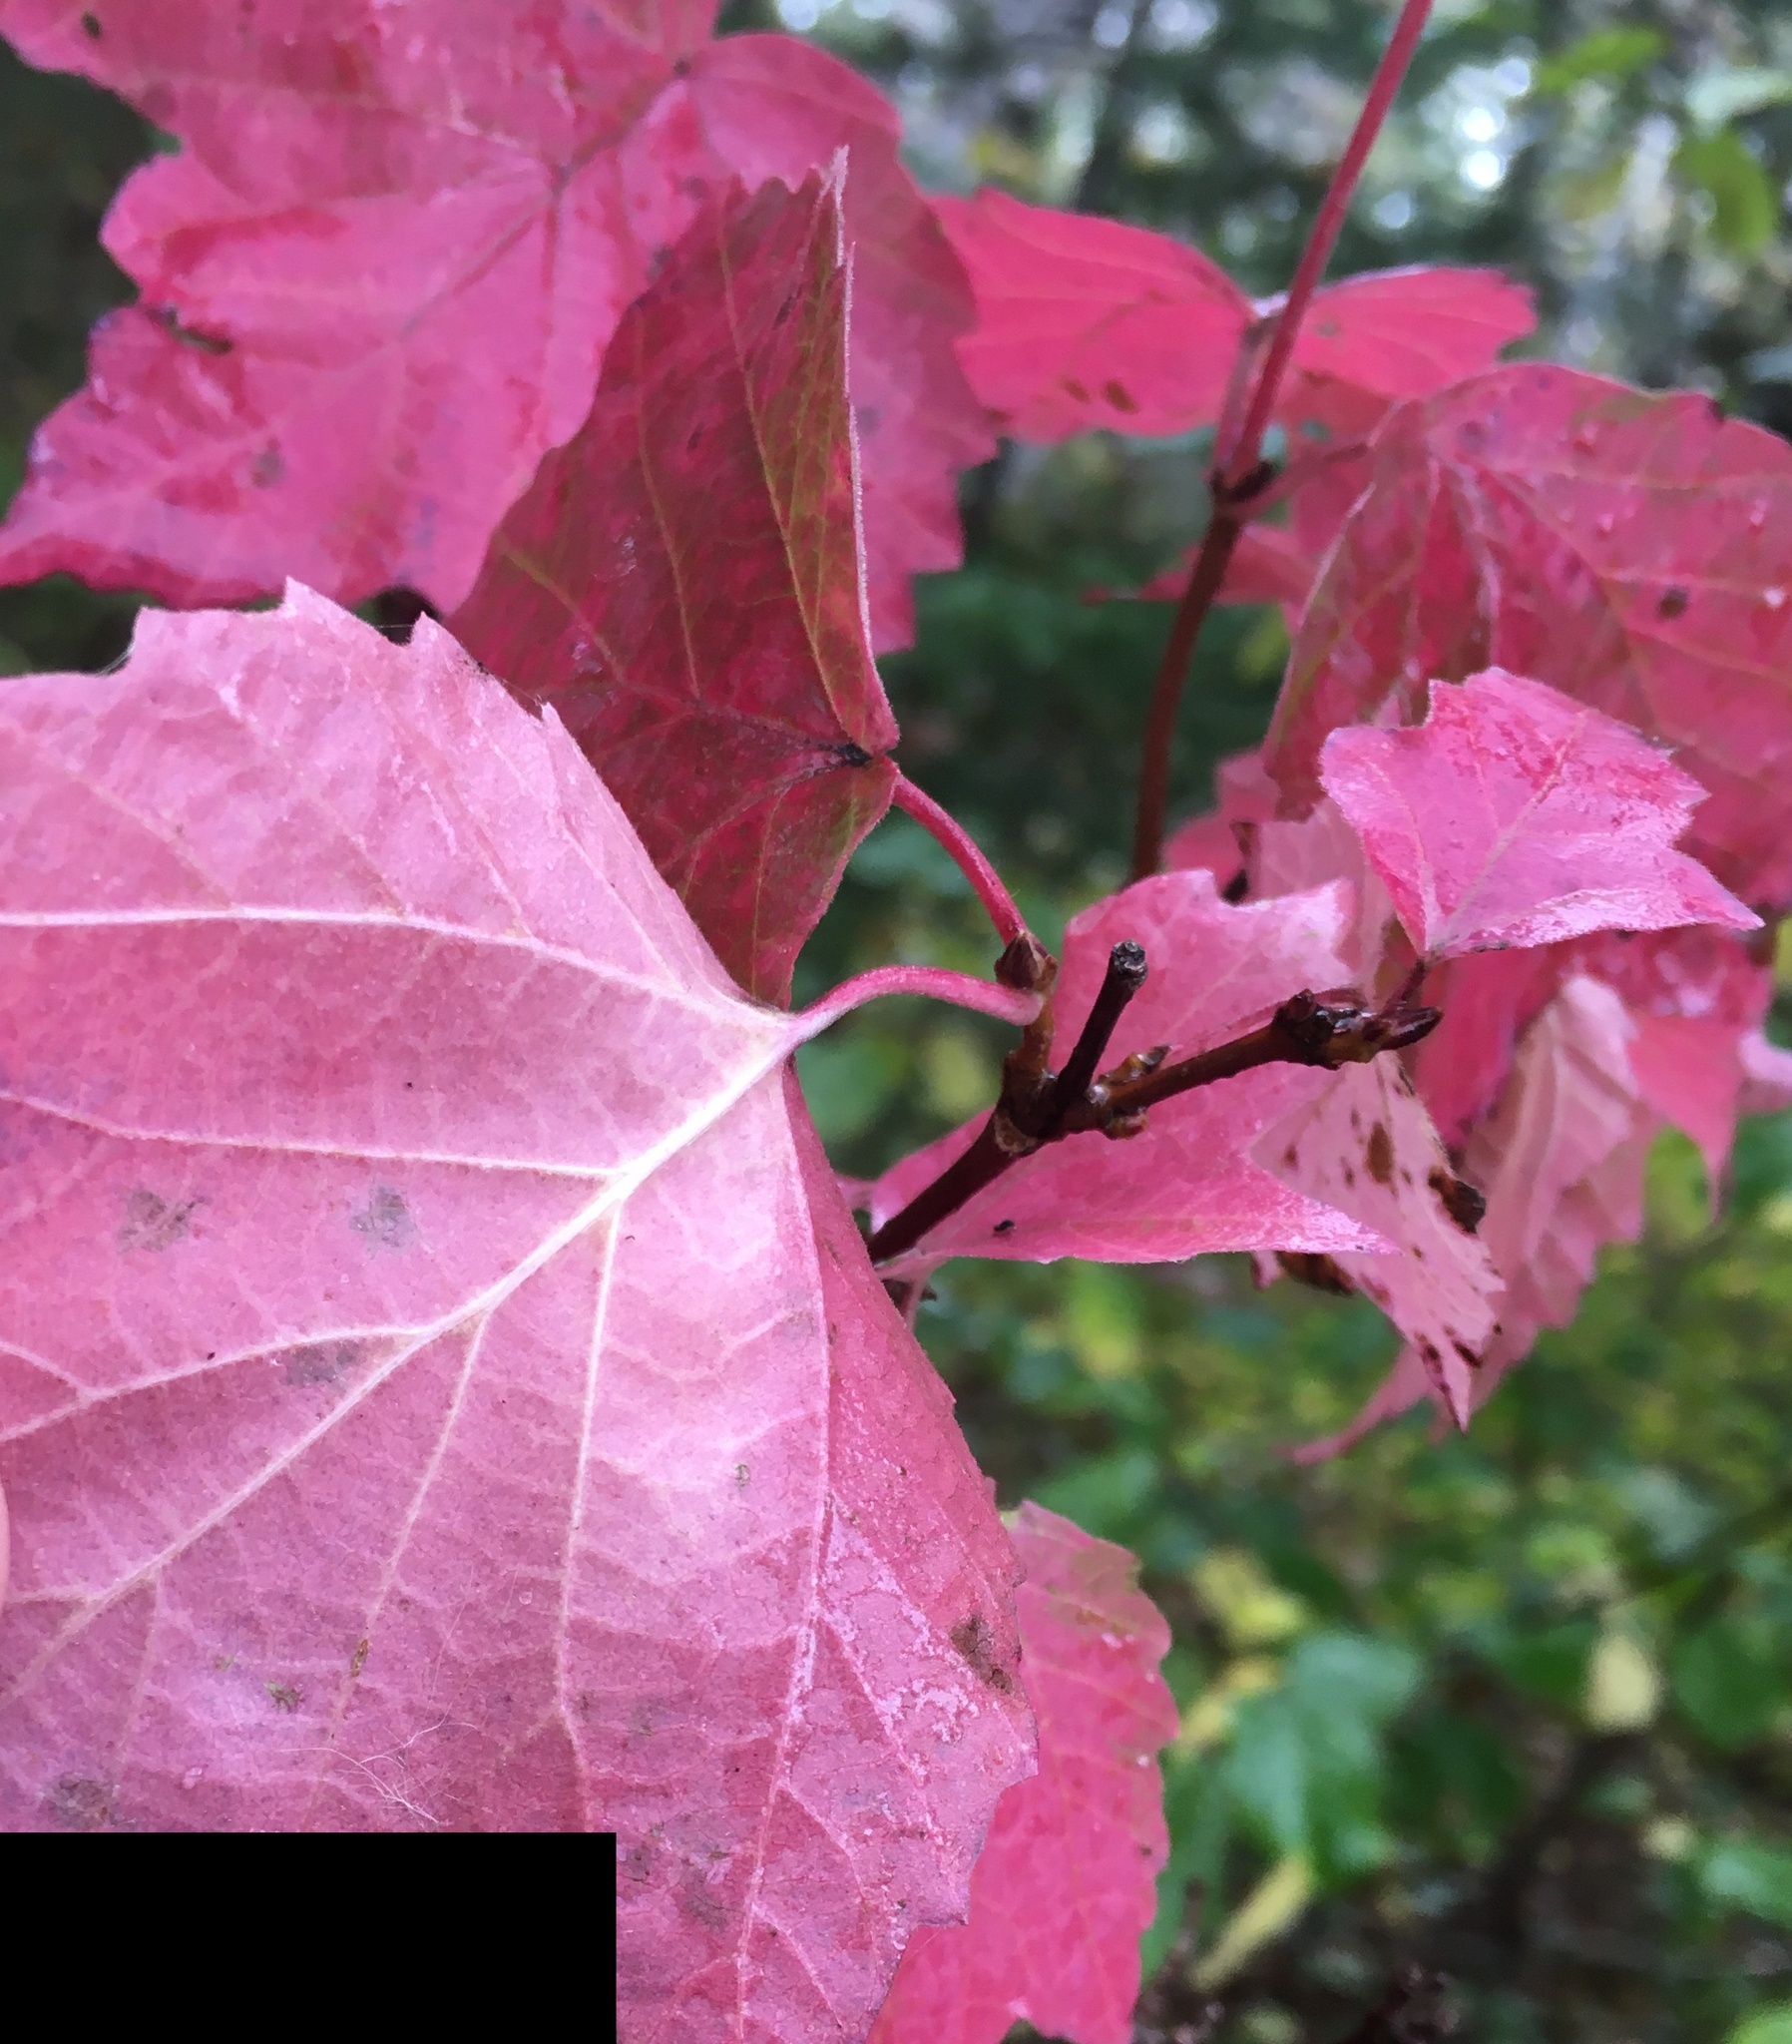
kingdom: Plantae
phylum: Tracheophyta
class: Magnoliopsida
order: Dipsacales
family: Viburnaceae
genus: Viburnum
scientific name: Viburnum acerifolium
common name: Dockmackie
